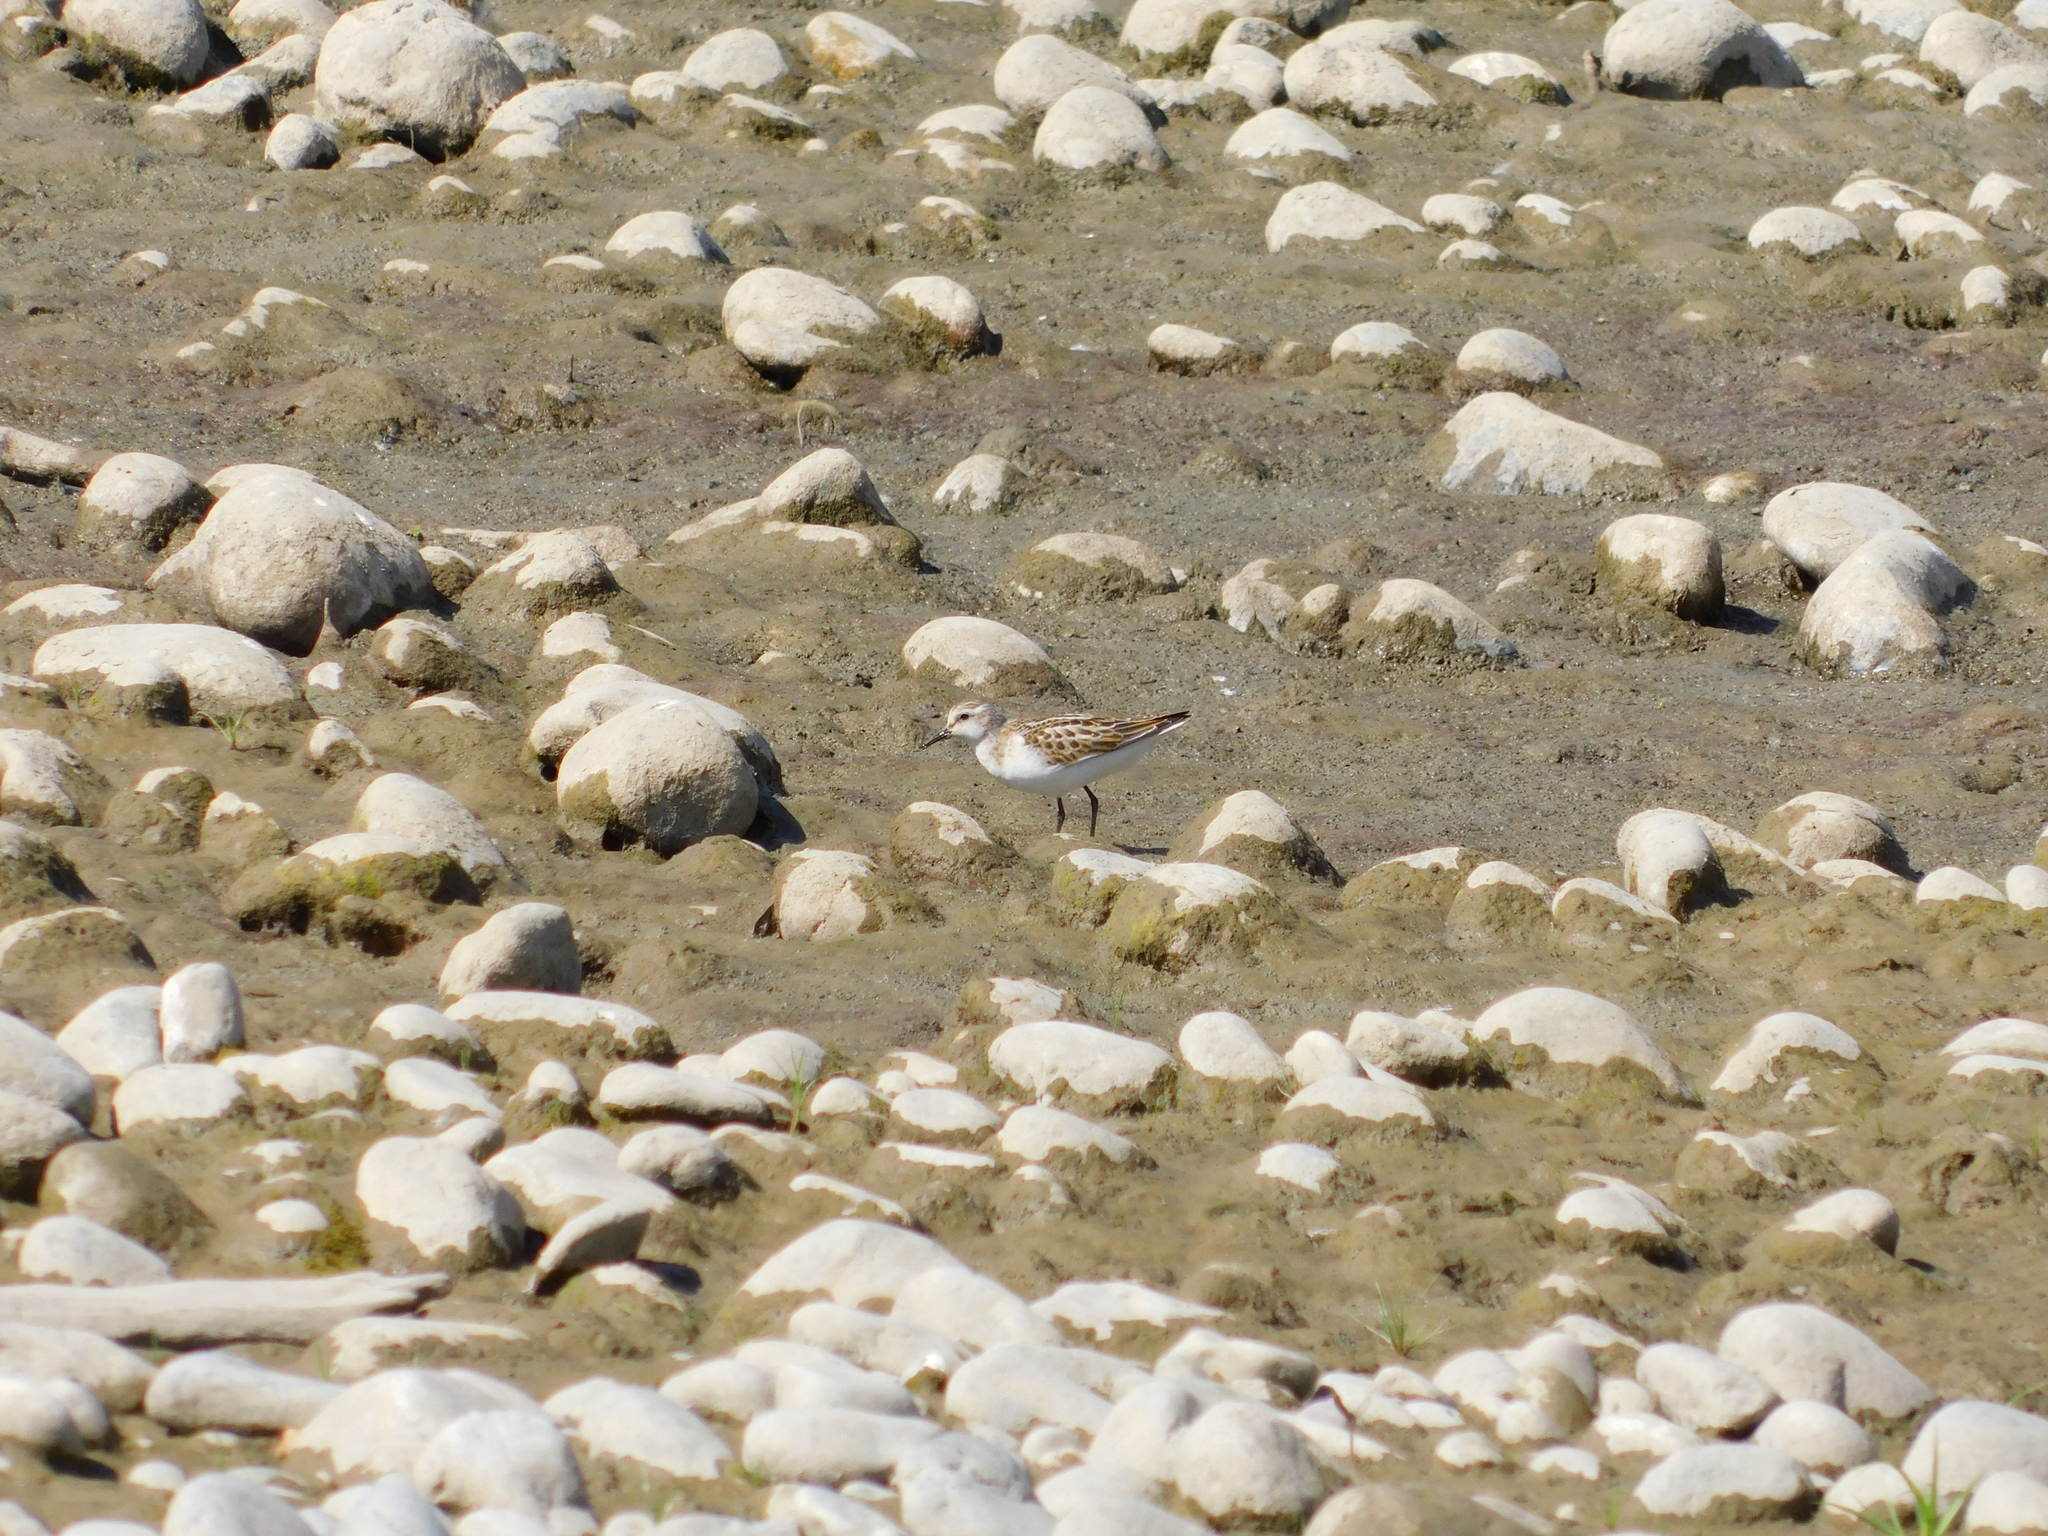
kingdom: Animalia
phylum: Chordata
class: Aves
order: Charadriiformes
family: Scolopacidae
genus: Calidris
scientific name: Calidris minuta
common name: Little stint
